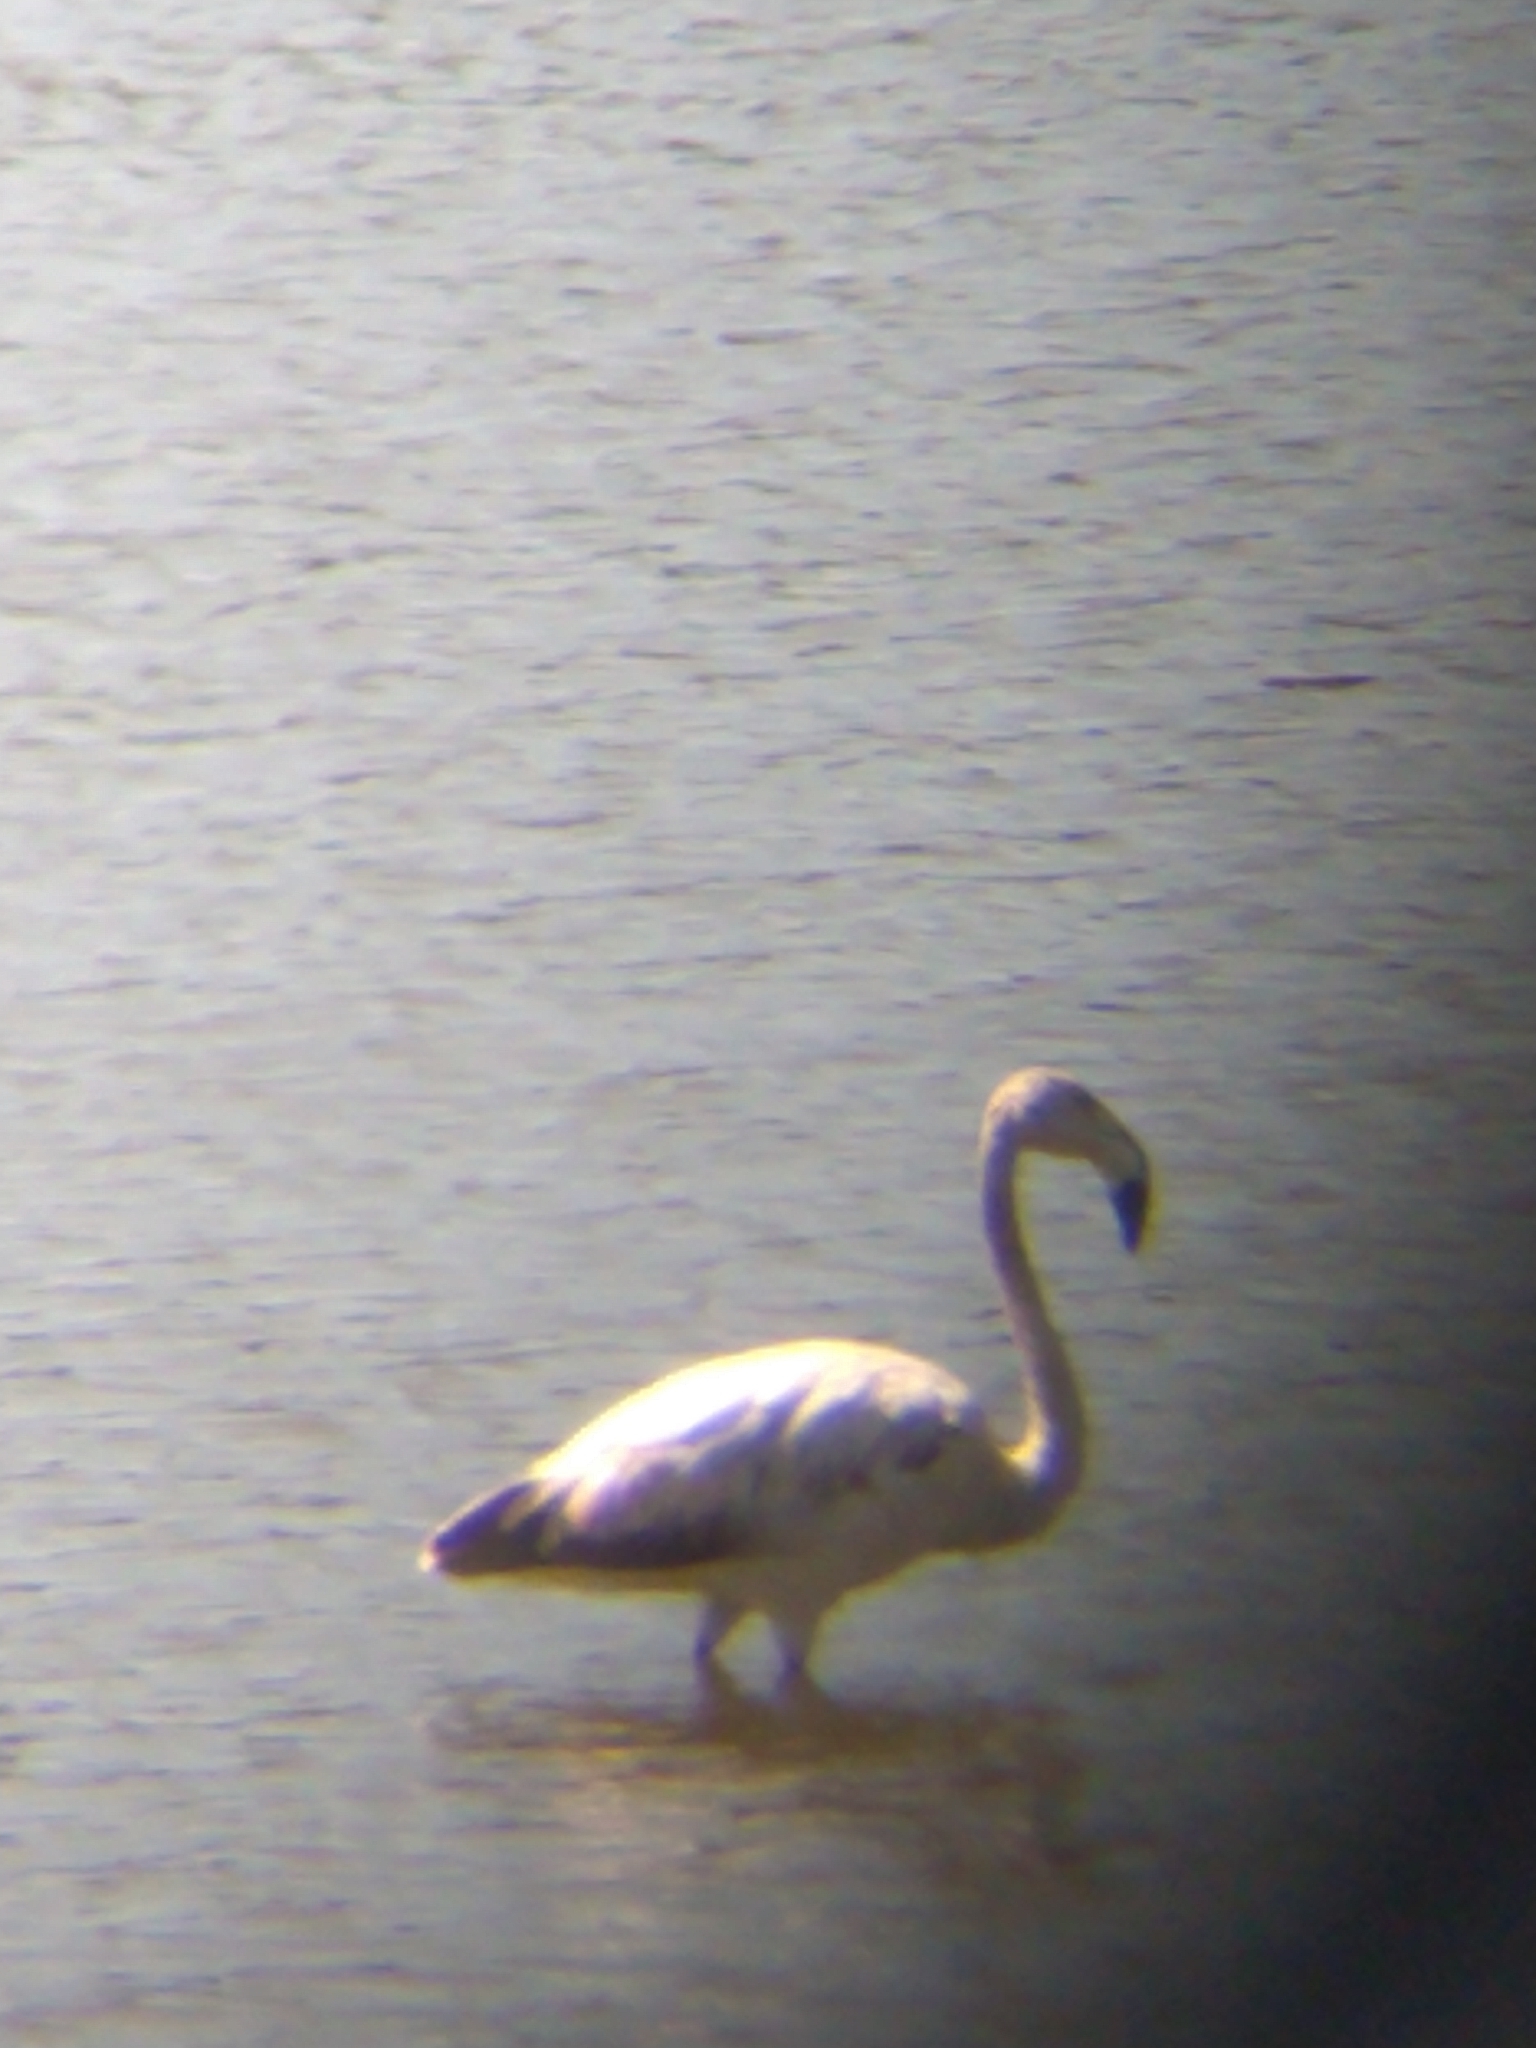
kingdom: Animalia
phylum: Chordata
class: Aves
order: Phoenicopteriformes
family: Phoenicopteridae
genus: Phoenicopterus
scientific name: Phoenicopterus chilensis
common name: Chilean flamingo
